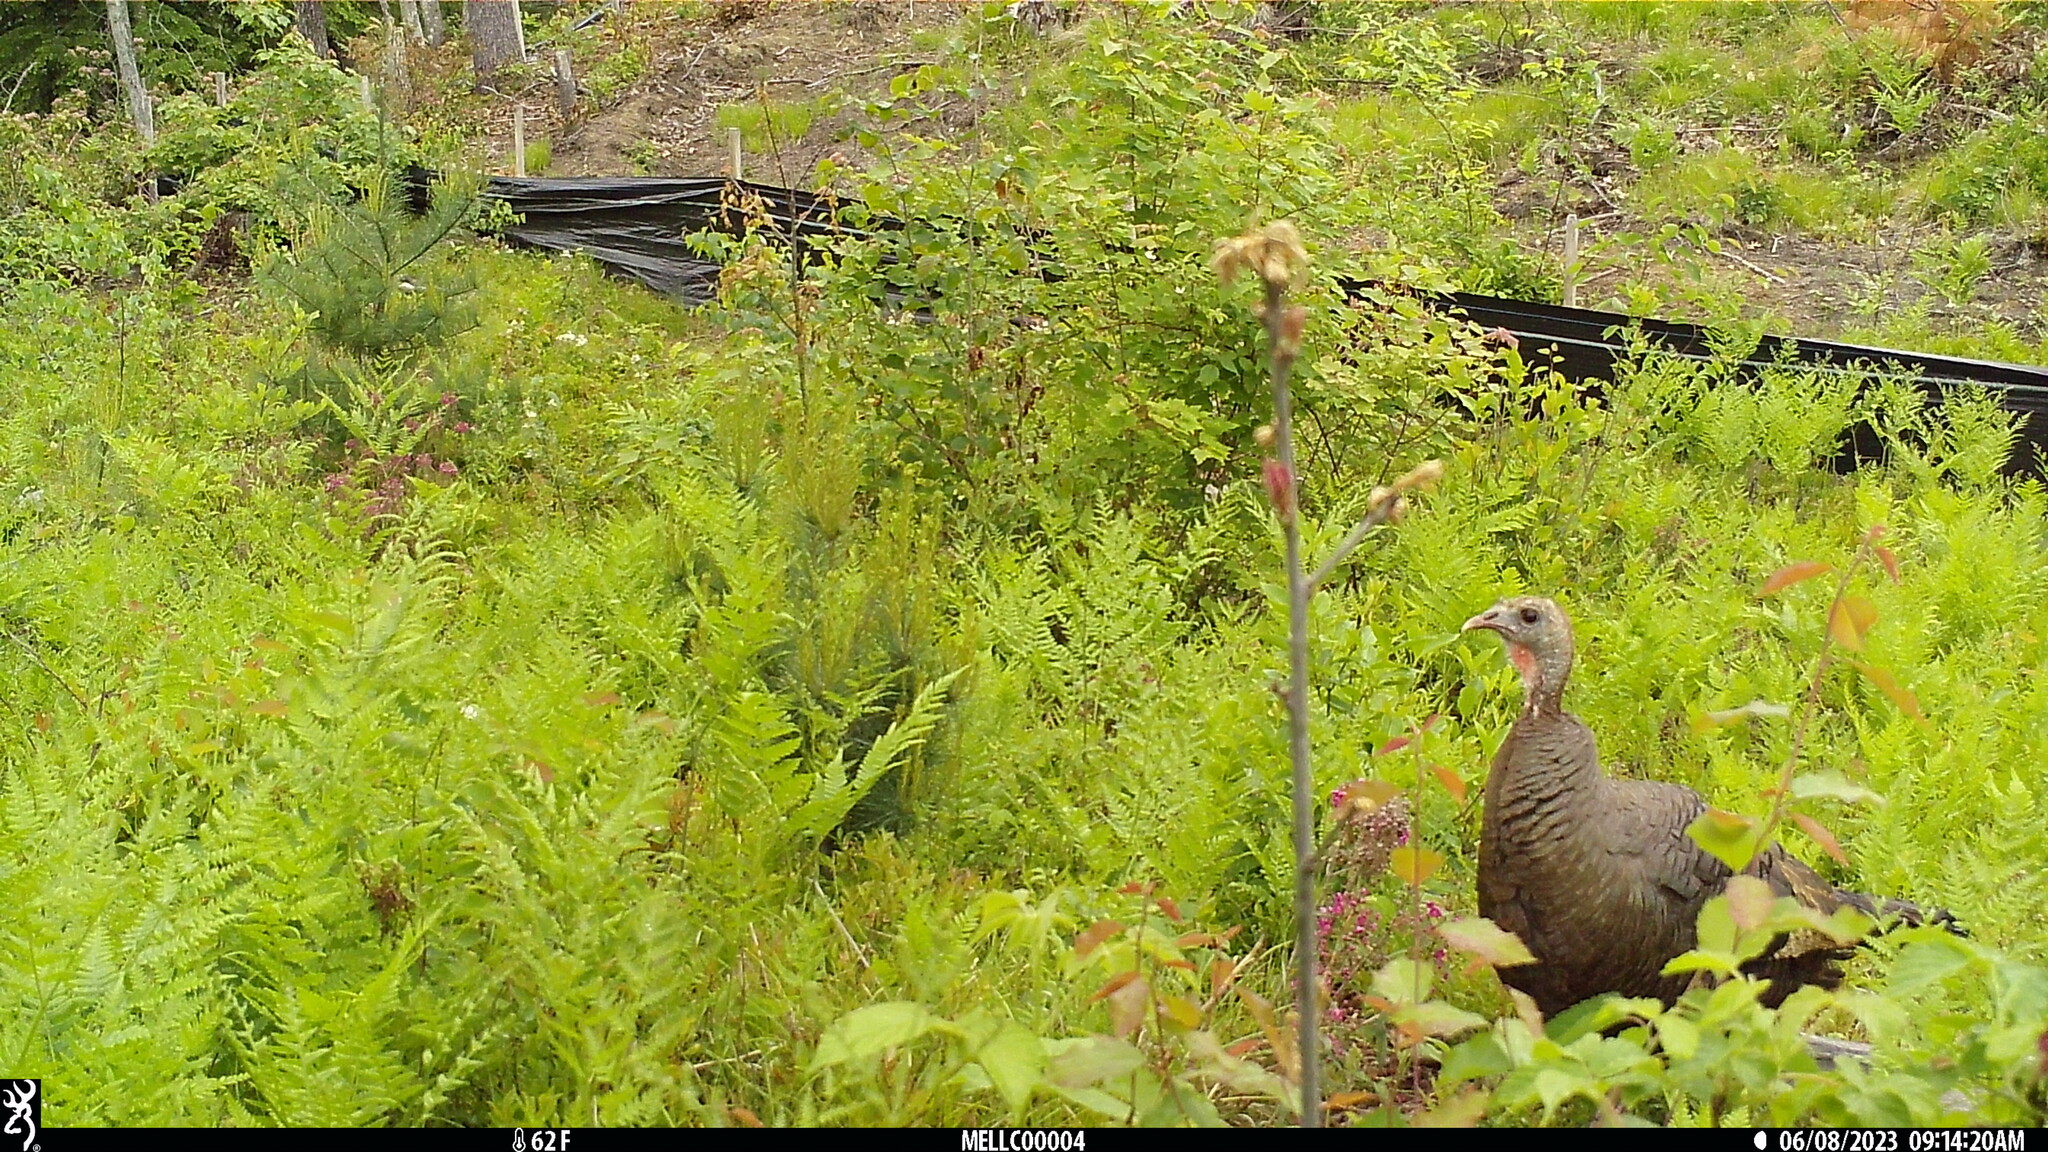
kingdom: Animalia
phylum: Chordata
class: Aves
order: Galliformes
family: Phasianidae
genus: Meleagris
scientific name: Meleagris gallopavo
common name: Wild turkey
